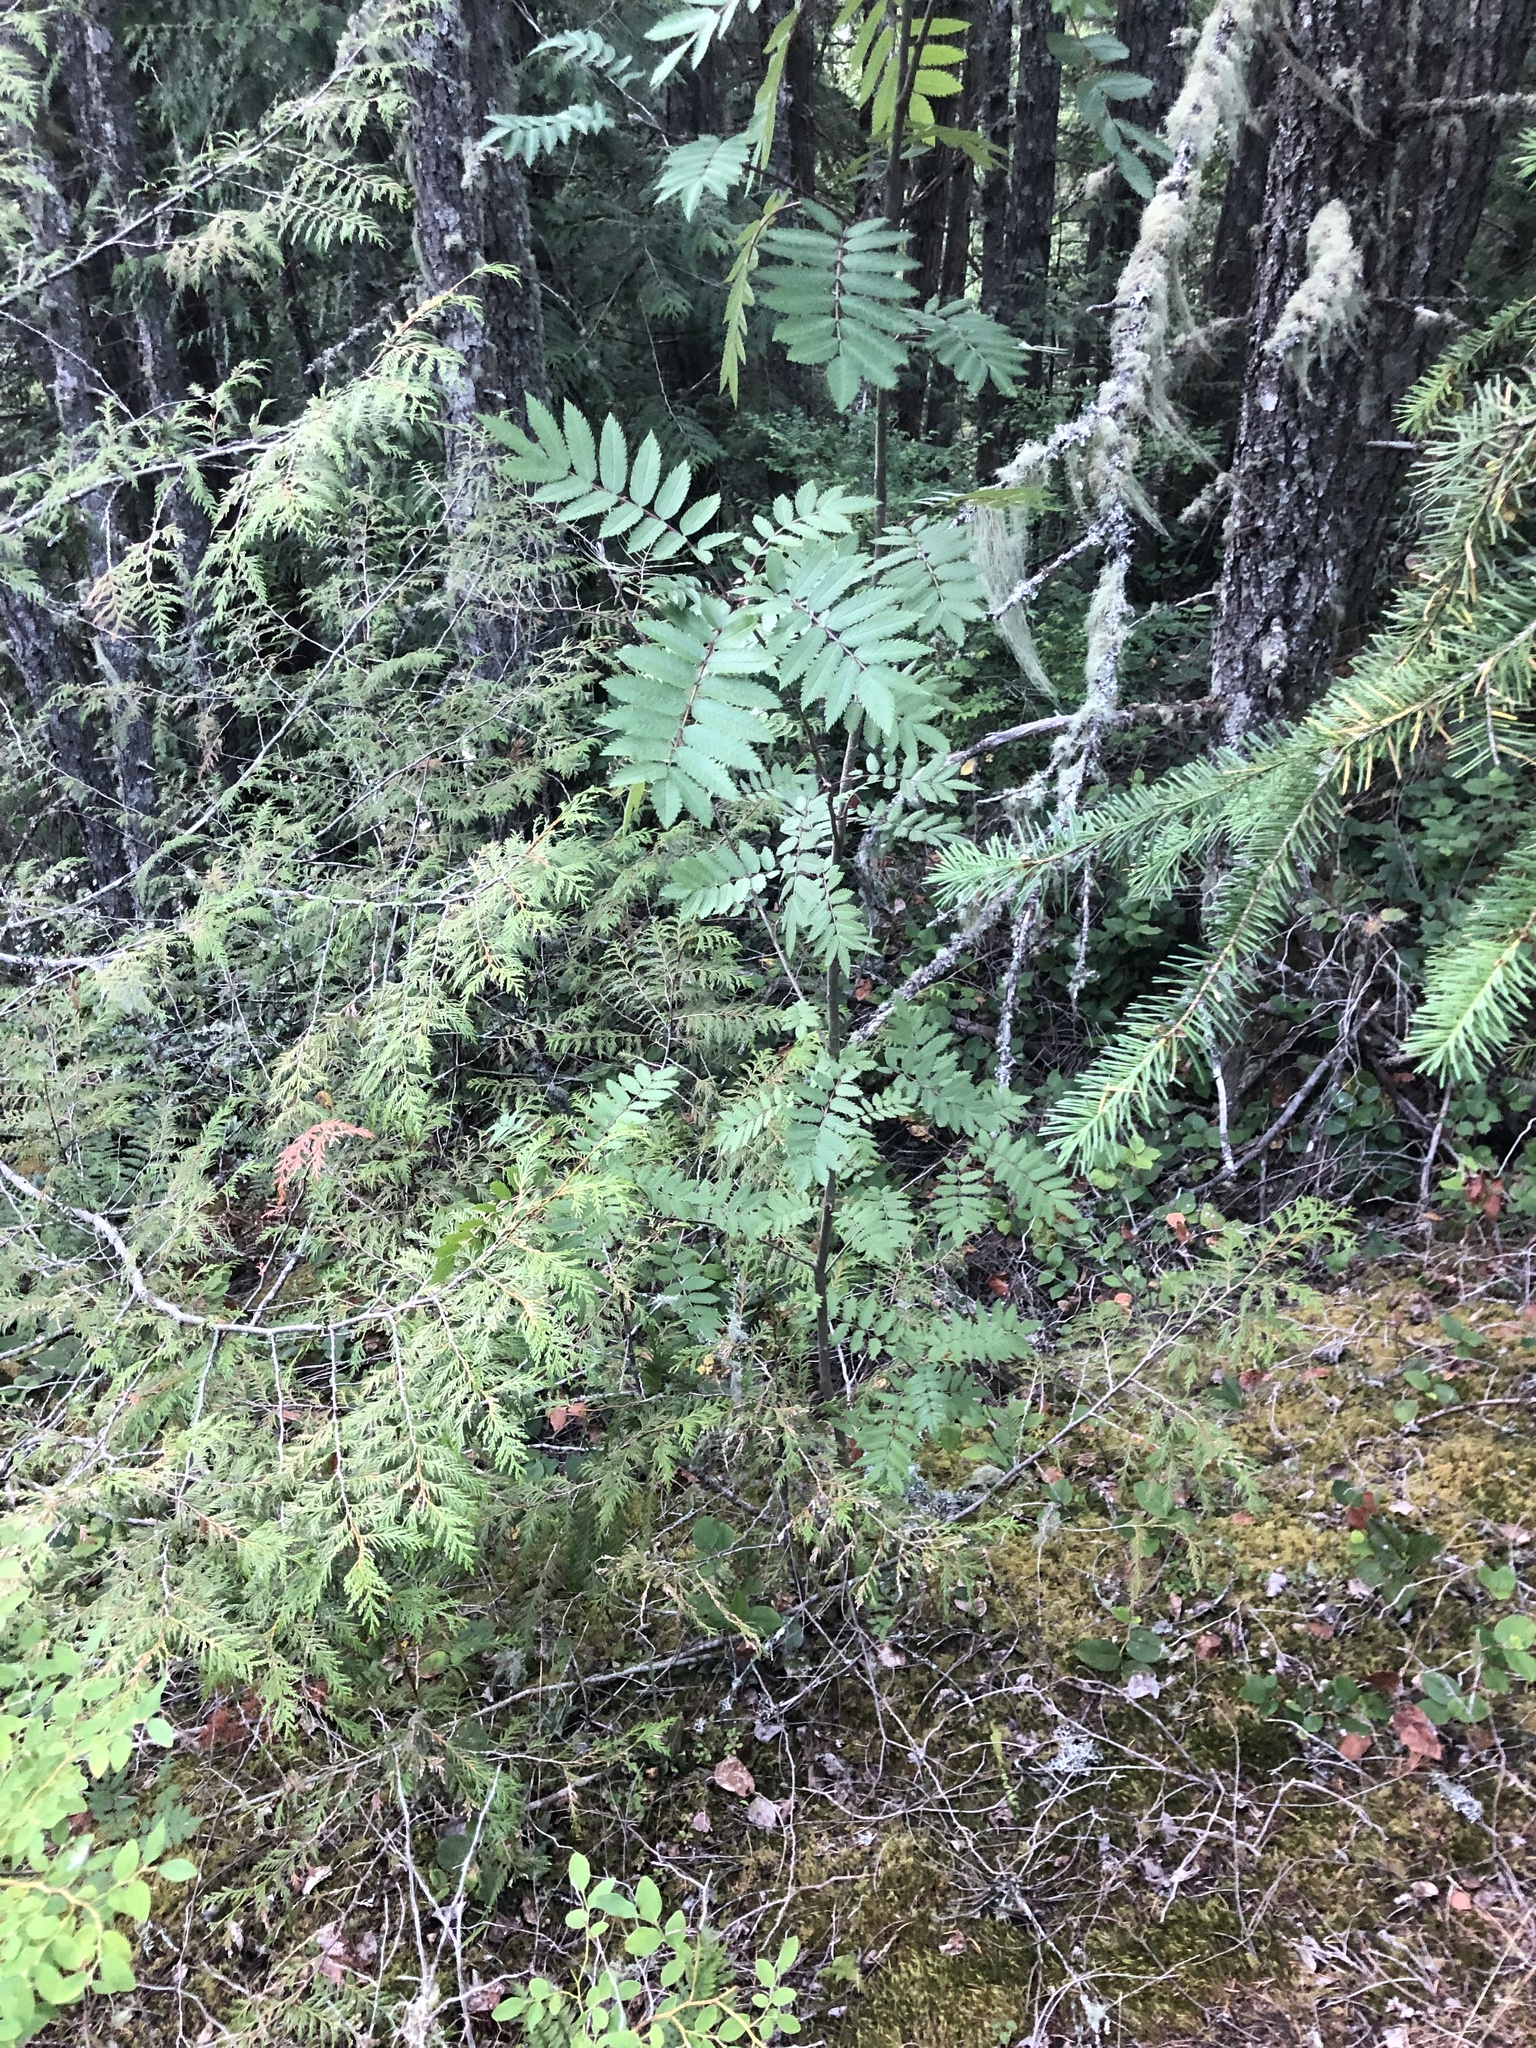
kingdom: Plantae
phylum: Tracheophyta
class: Magnoliopsida
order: Rosales
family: Rosaceae
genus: Sorbus
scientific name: Sorbus aucuparia
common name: Rowan
